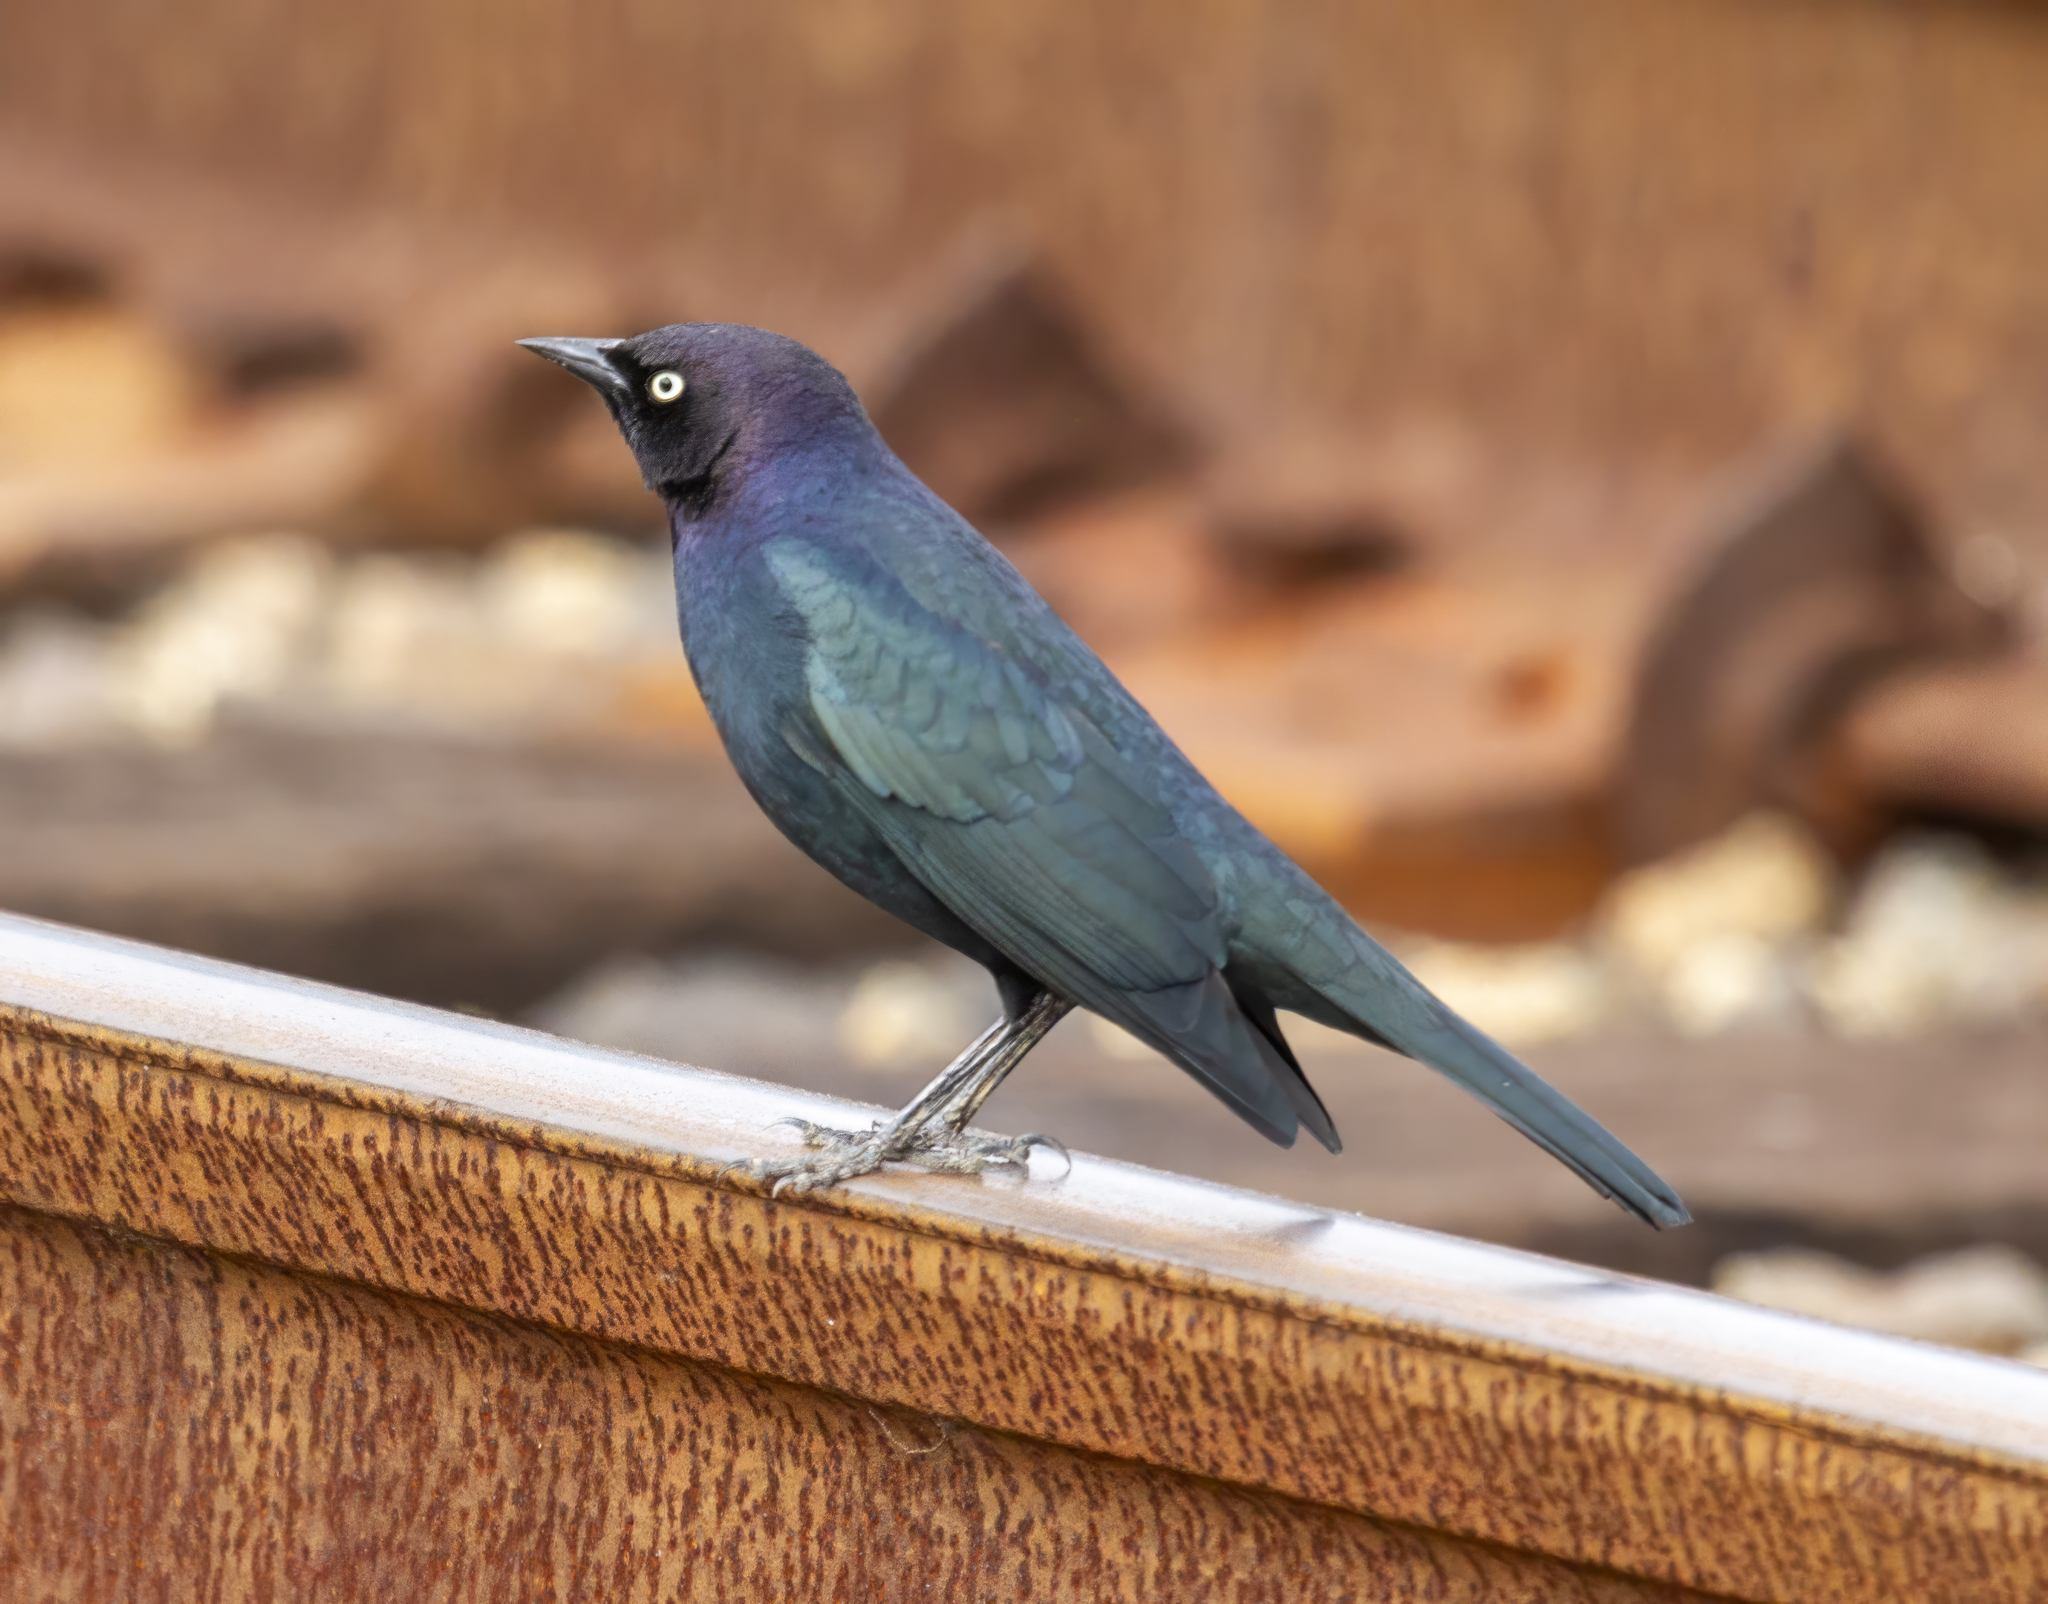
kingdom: Animalia
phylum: Chordata
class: Aves
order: Passeriformes
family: Icteridae
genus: Euphagus
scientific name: Euphagus cyanocephalus
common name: Brewer's blackbird
